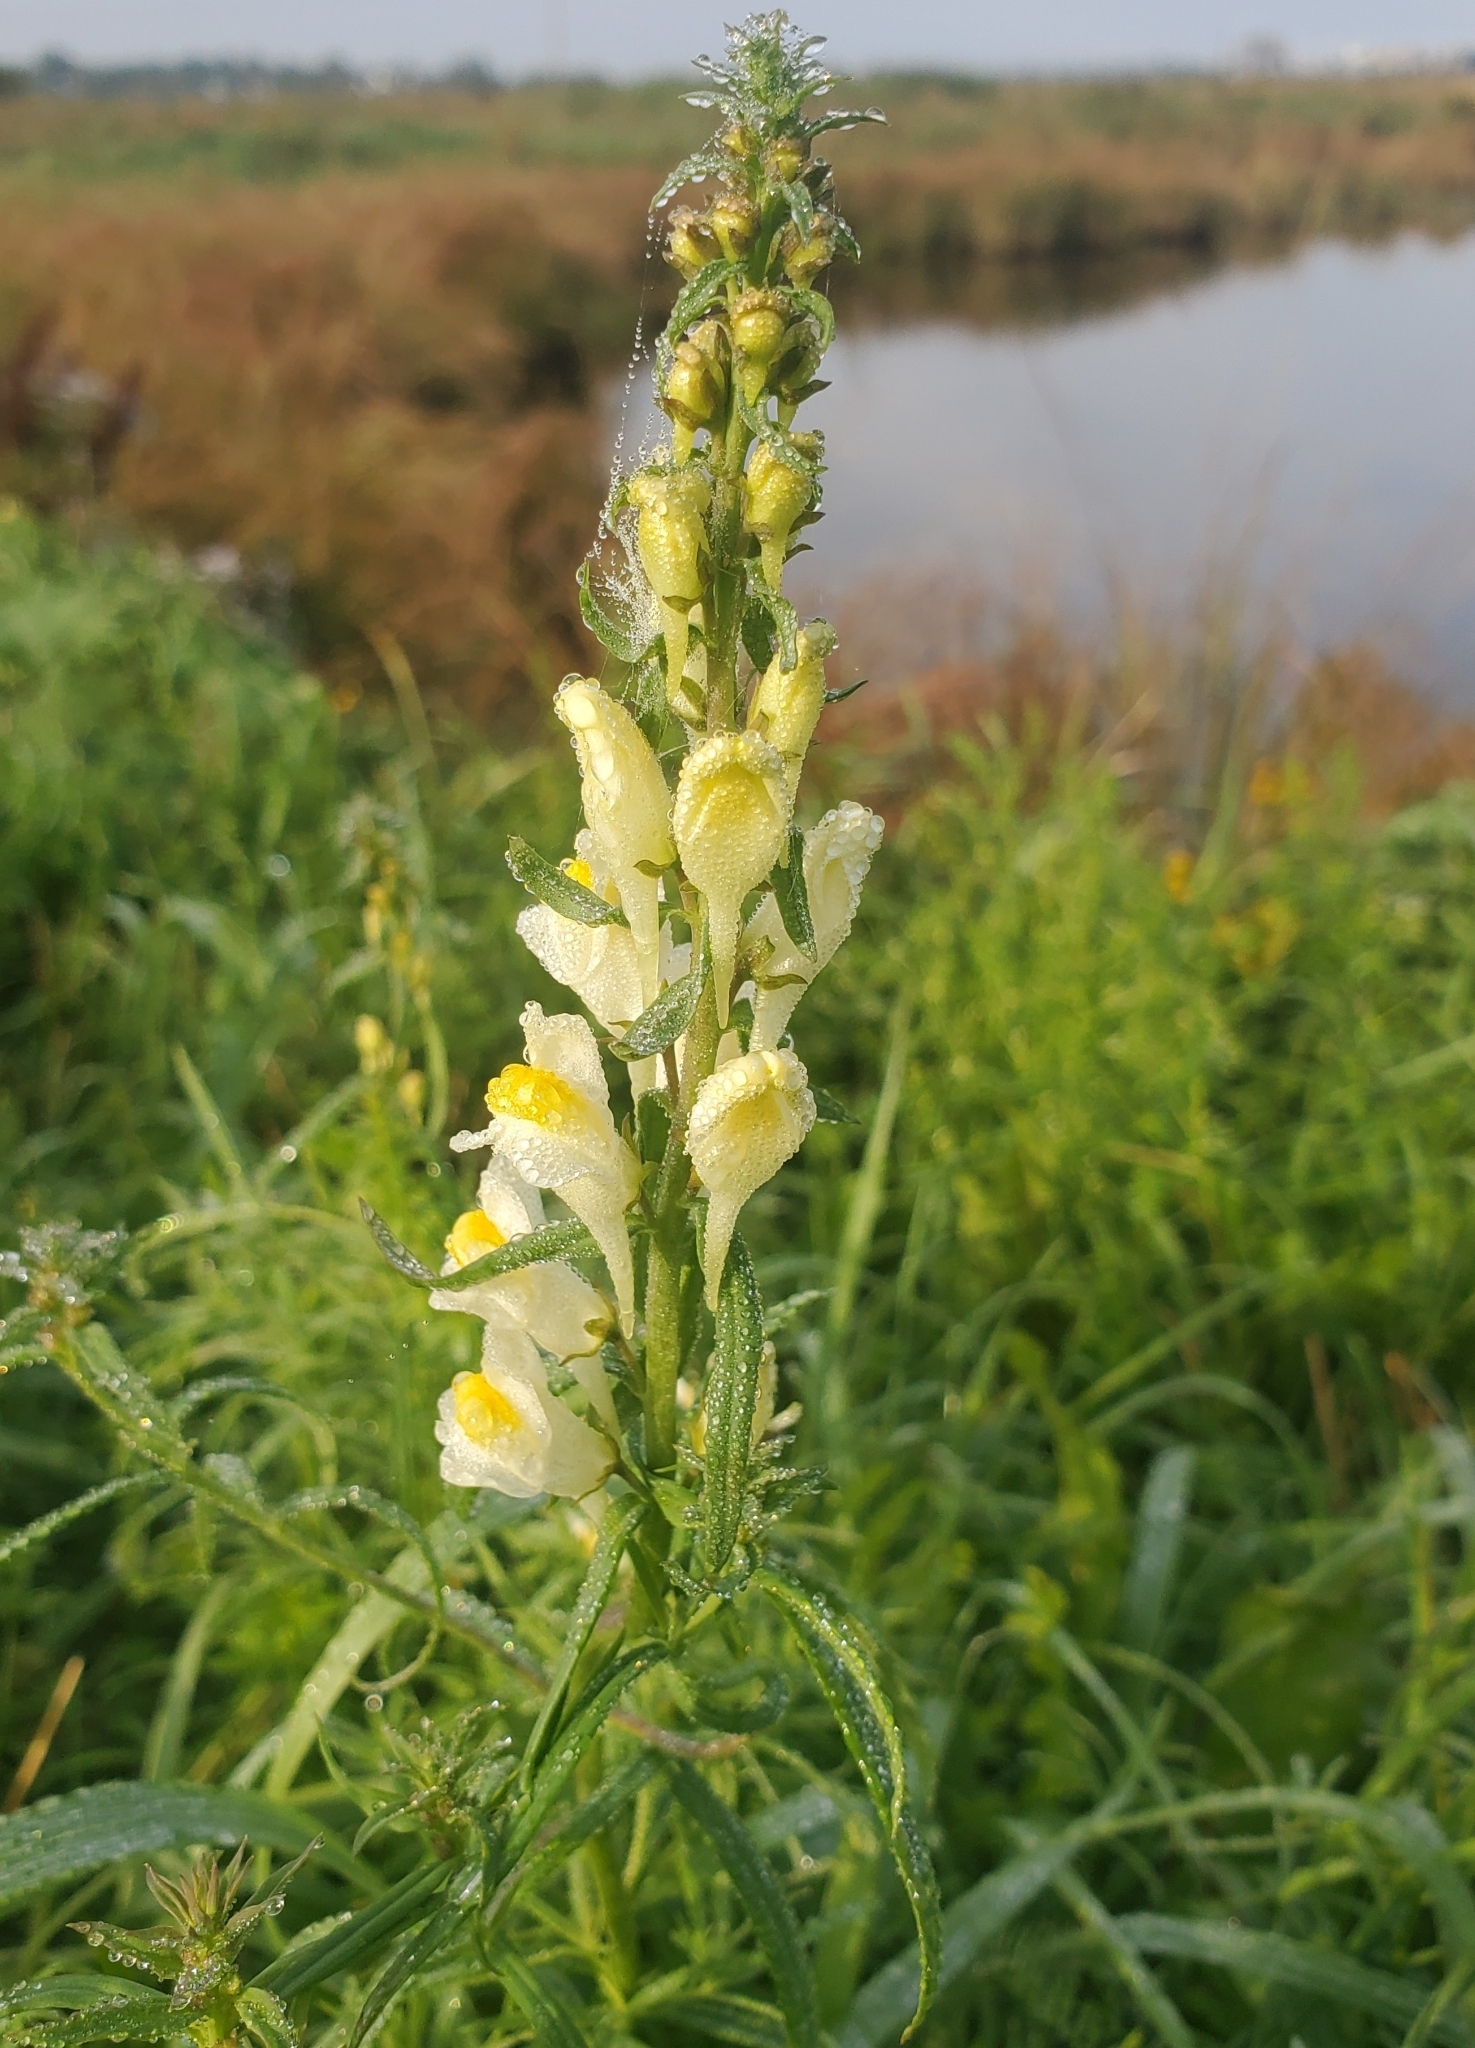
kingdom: Plantae
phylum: Tracheophyta
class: Magnoliopsida
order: Lamiales
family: Plantaginaceae
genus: Linaria
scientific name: Linaria vulgaris
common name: Butter and eggs
